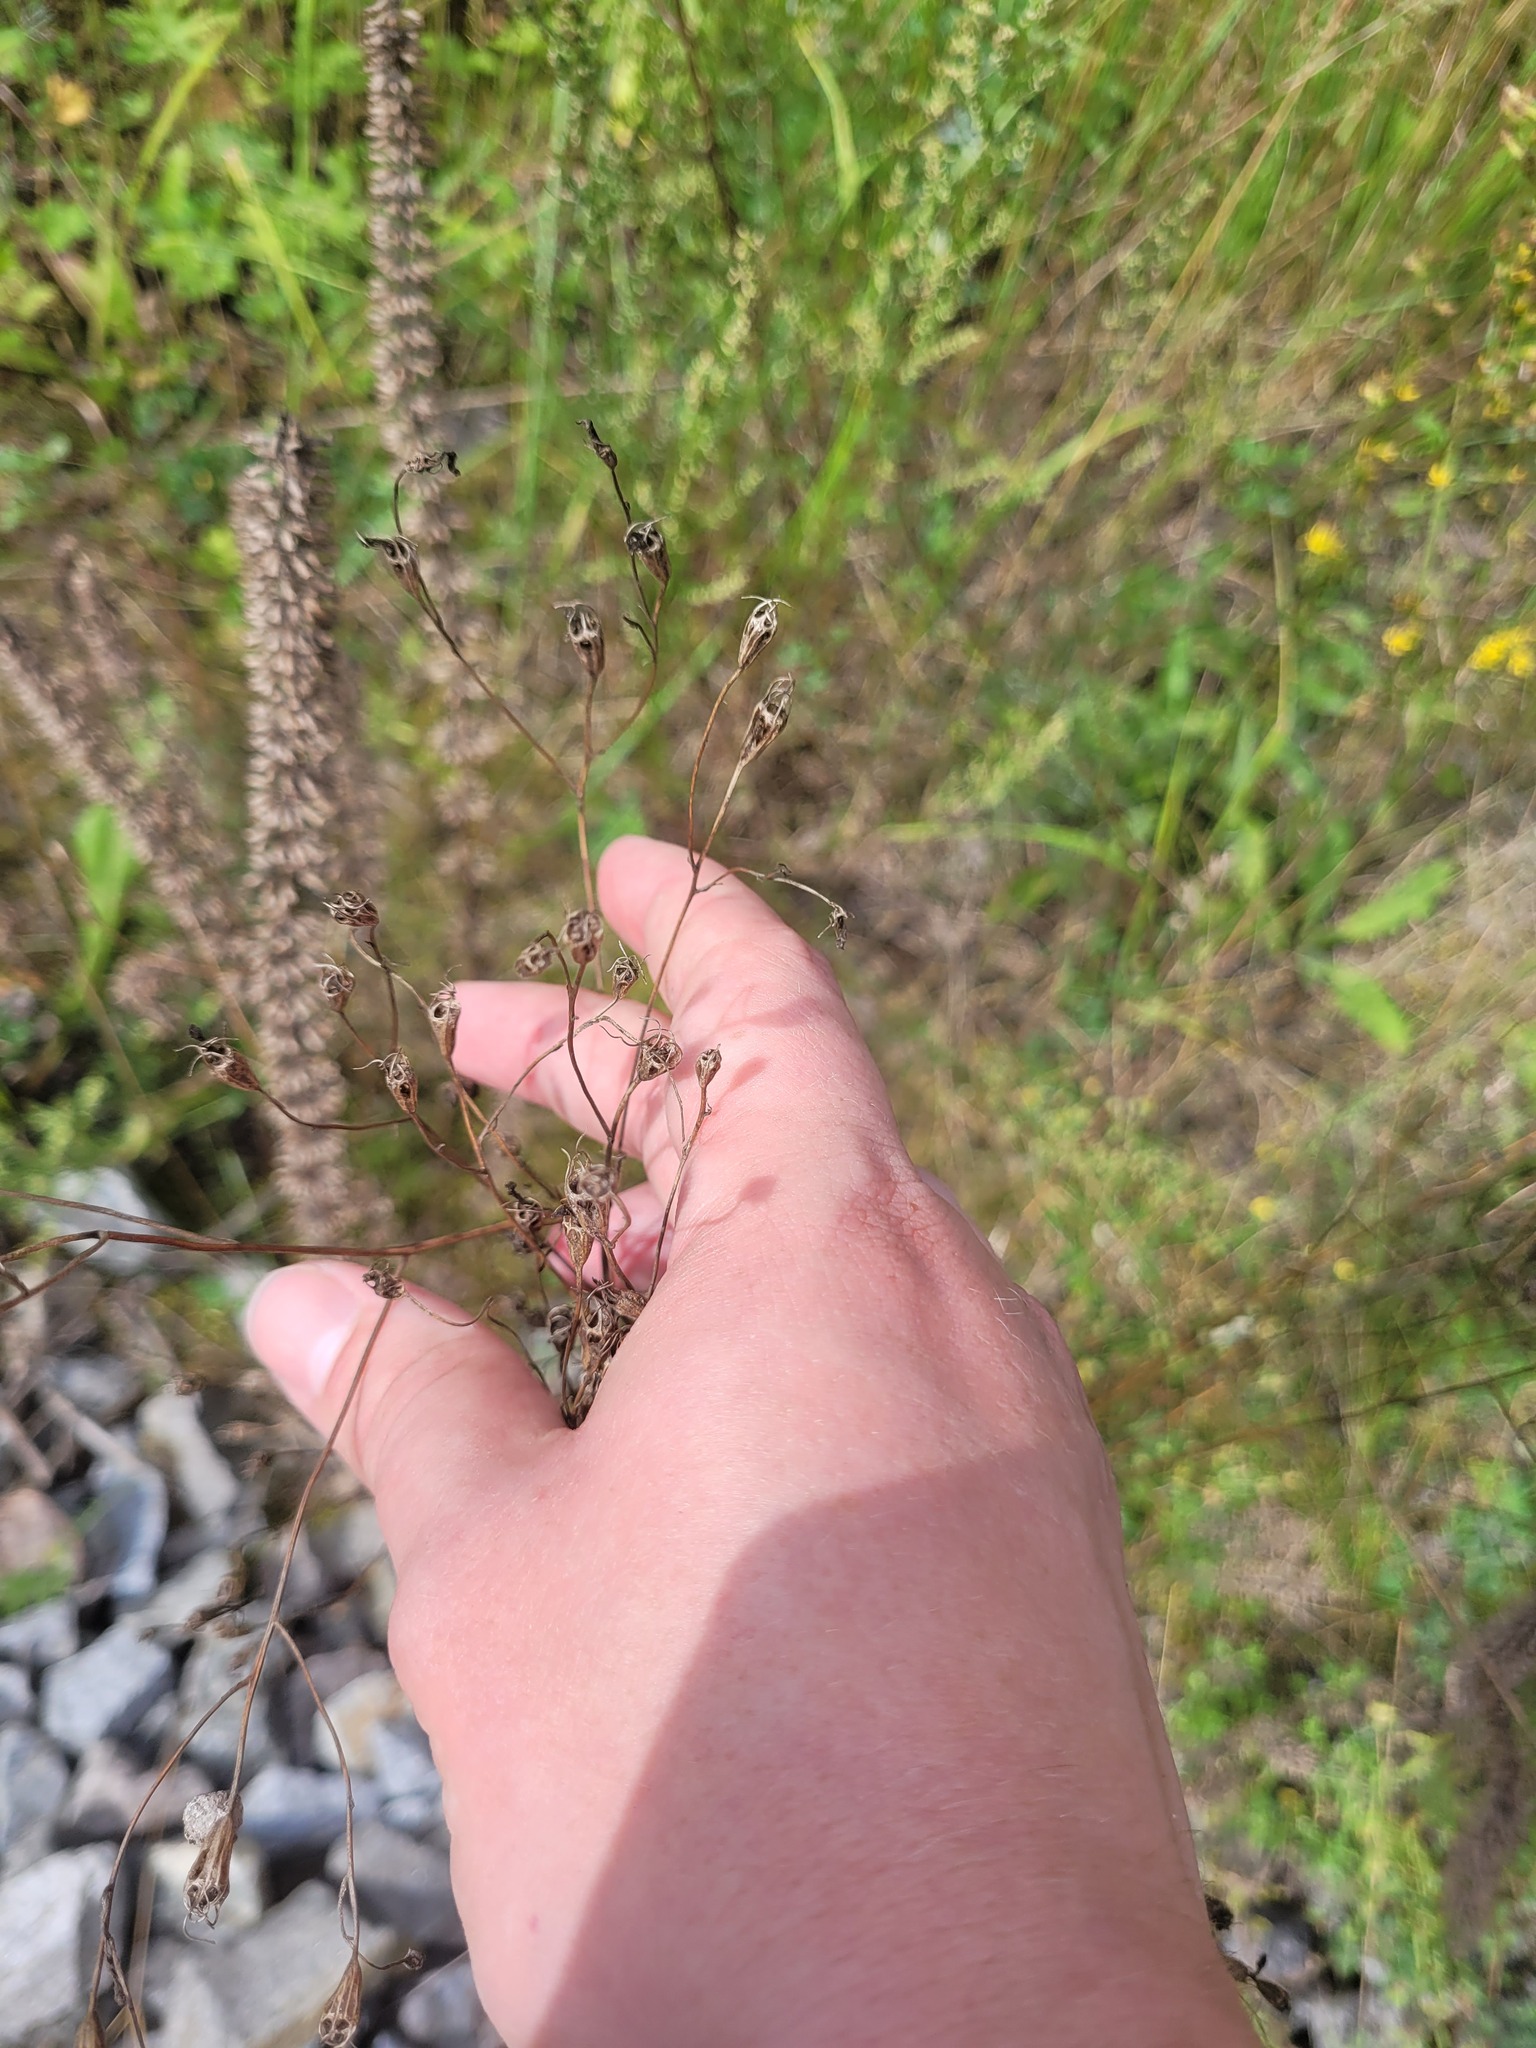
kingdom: Plantae
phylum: Tracheophyta
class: Magnoliopsida
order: Asterales
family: Campanulaceae
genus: Campanula
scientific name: Campanula patula
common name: Spreading bellflower
